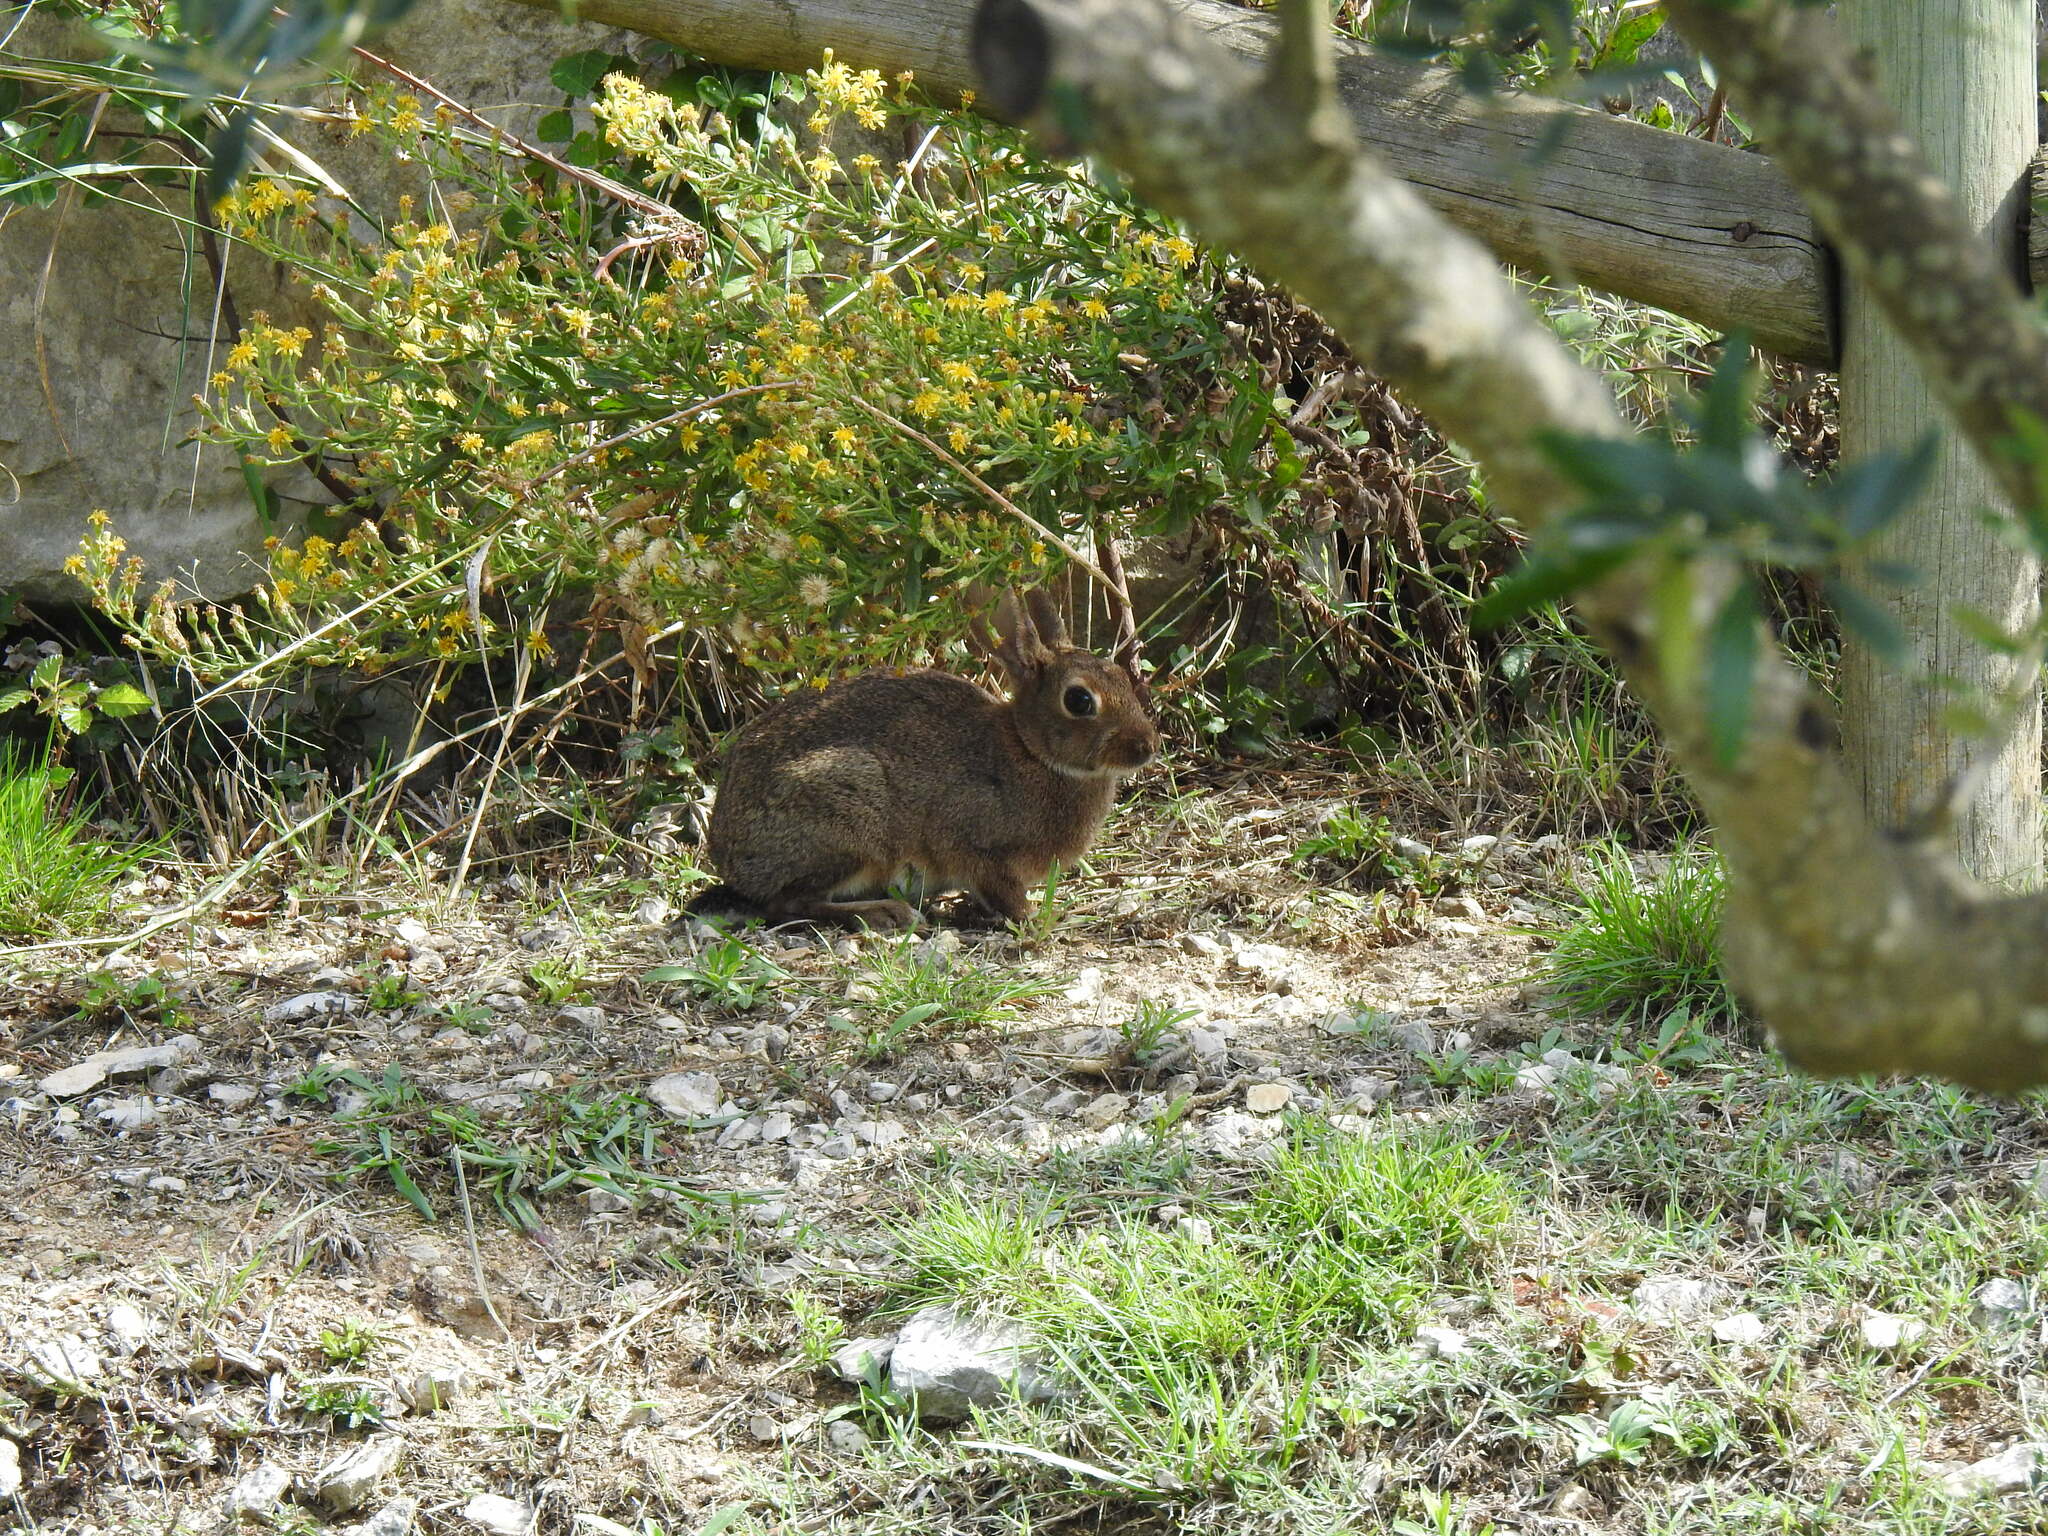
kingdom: Animalia
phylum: Chordata
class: Mammalia
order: Lagomorpha
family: Leporidae
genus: Oryctolagus
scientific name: Oryctolagus cuniculus
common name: European rabbit
